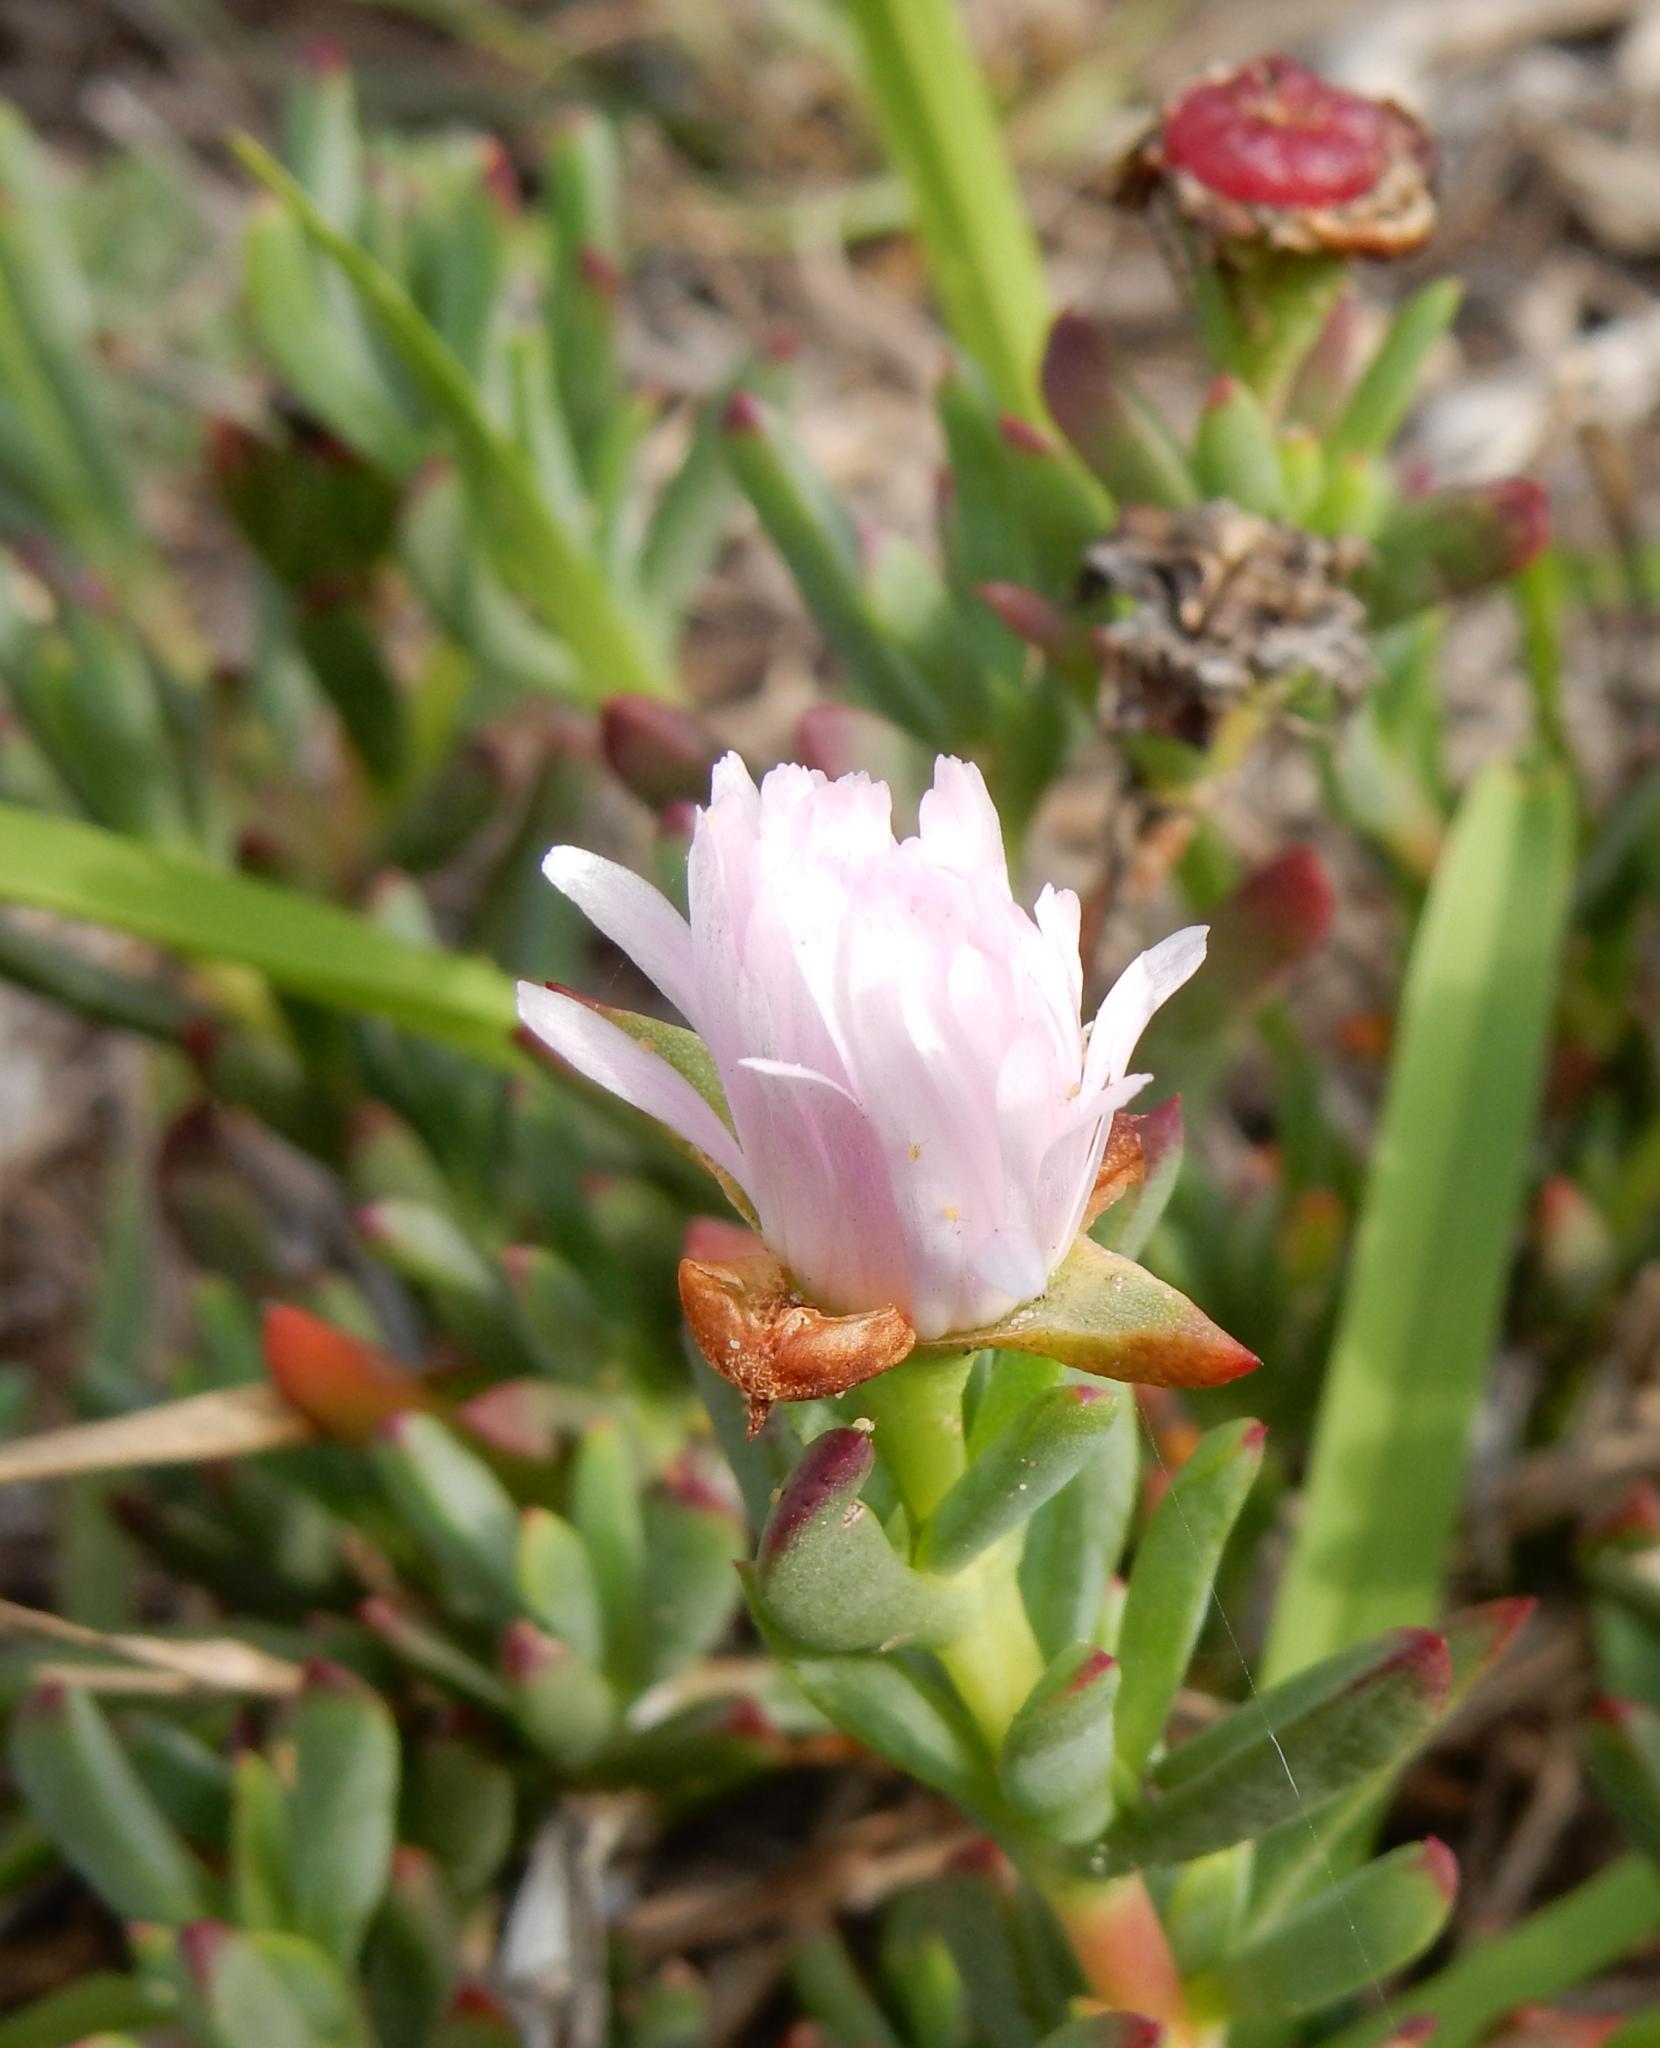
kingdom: Plantae
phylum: Tracheophyta
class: Magnoliopsida
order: Caryophyllales
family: Aizoaceae
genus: Lampranthus
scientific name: Lampranthus multiradiatus
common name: Creeping redflush
